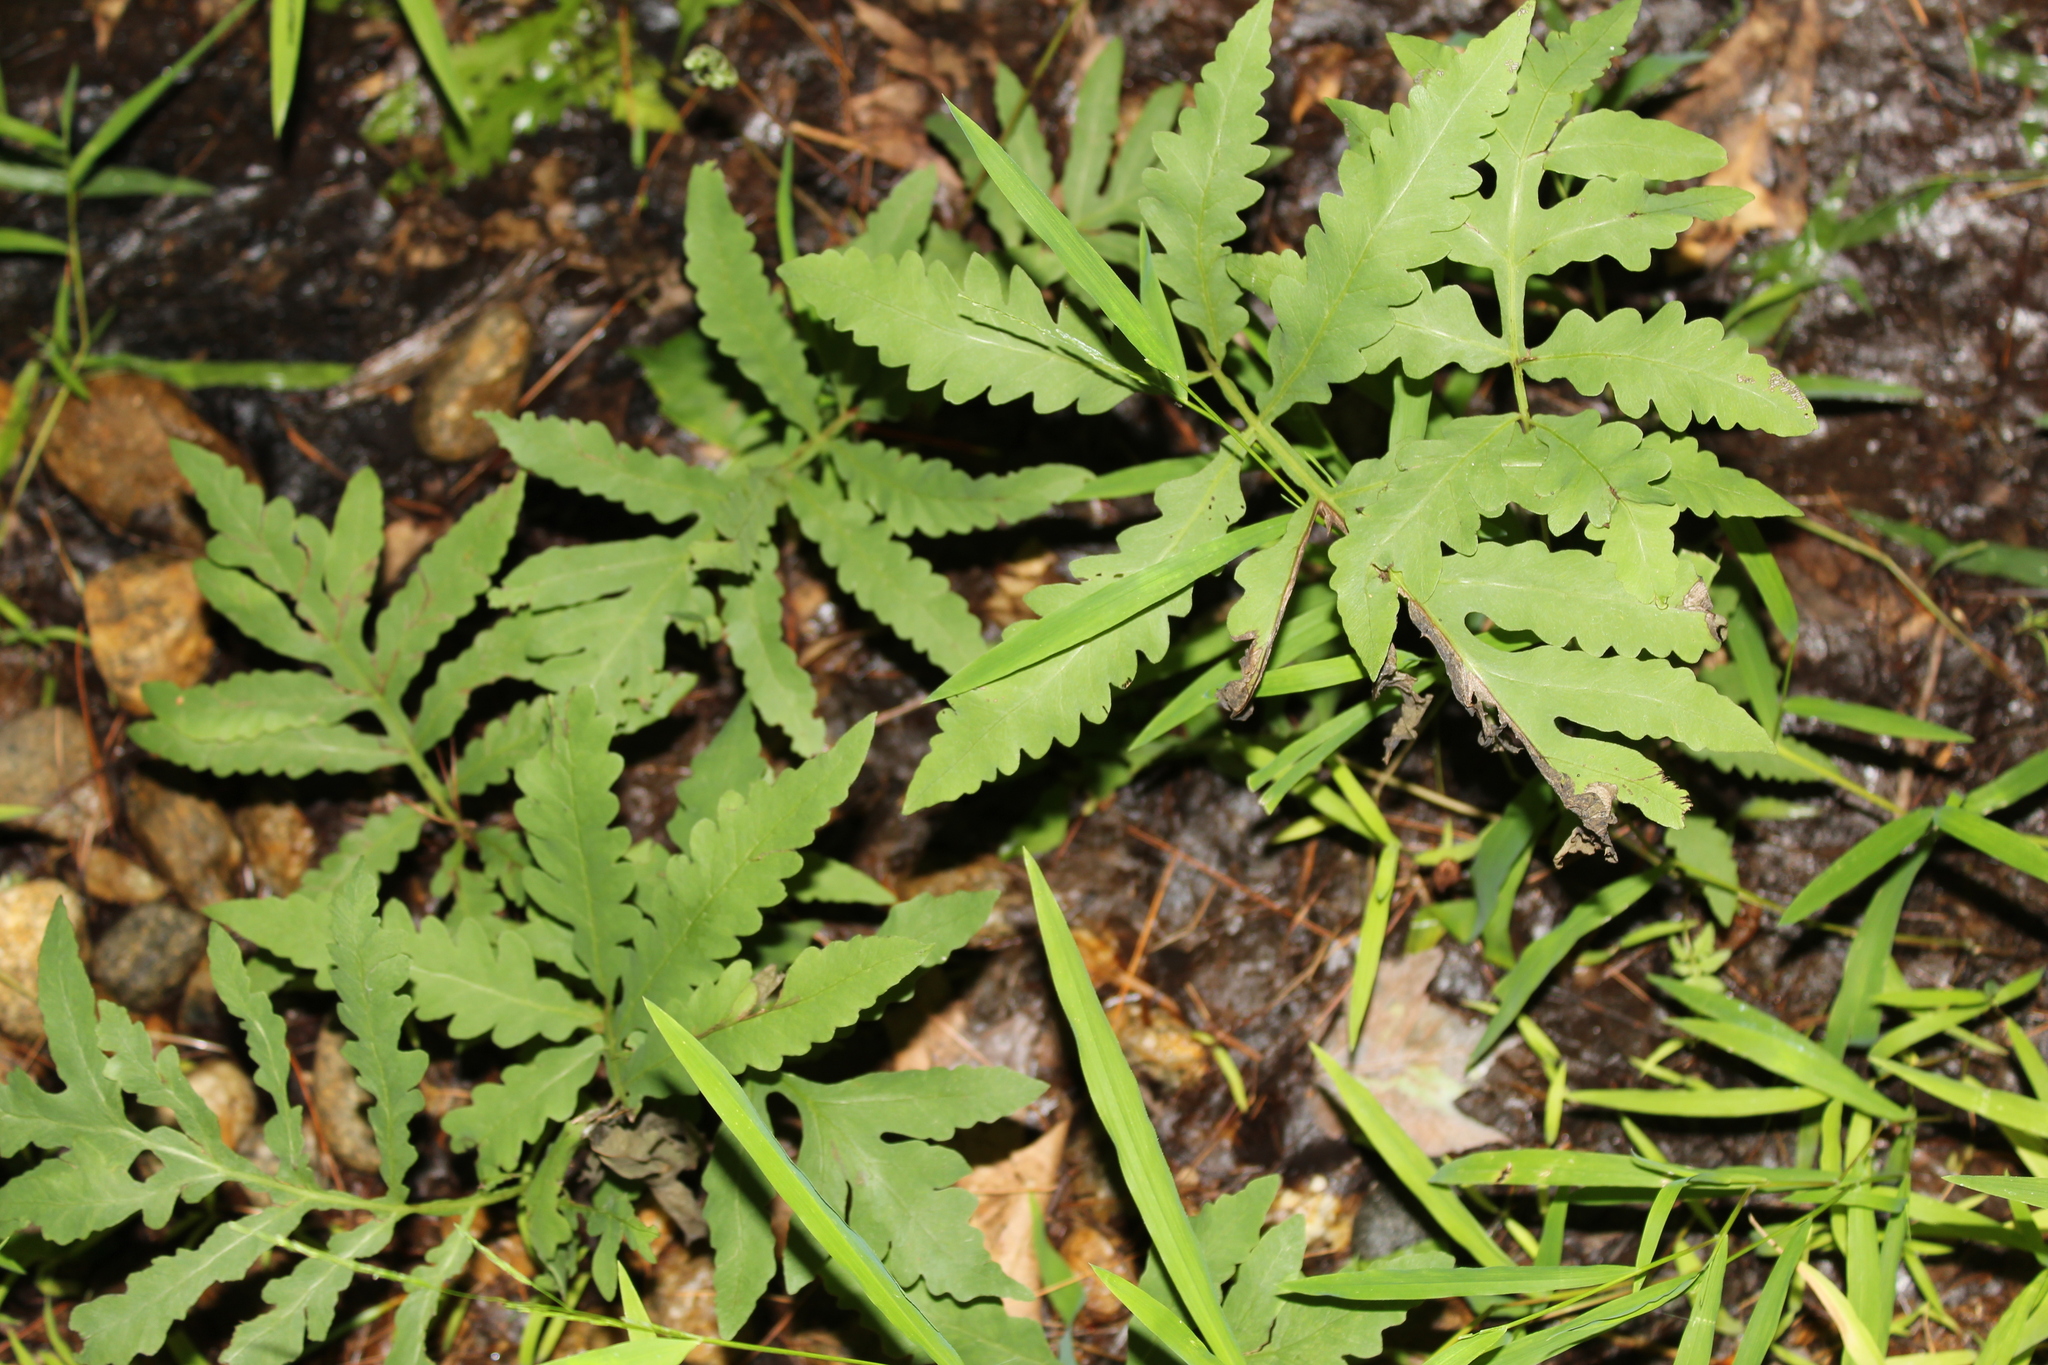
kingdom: Plantae
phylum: Tracheophyta
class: Polypodiopsida
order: Polypodiales
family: Onocleaceae
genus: Onoclea
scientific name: Onoclea sensibilis
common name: Sensitive fern
